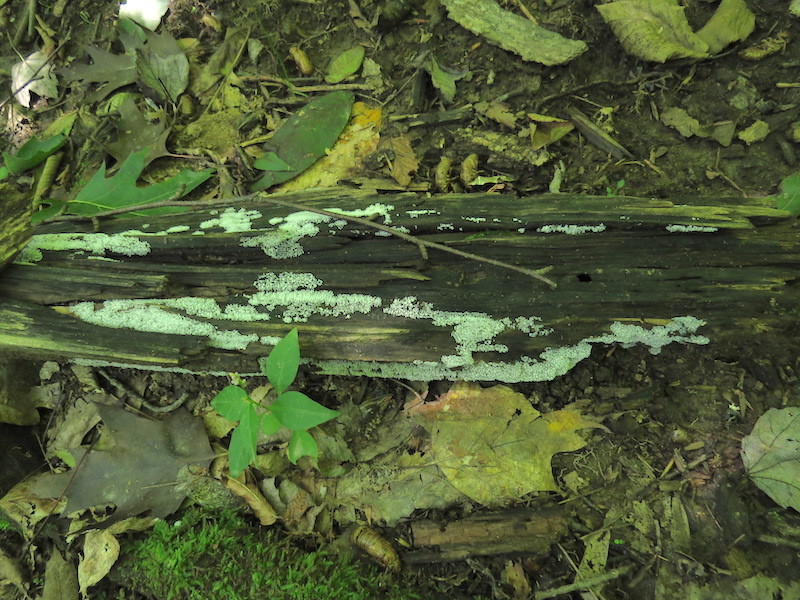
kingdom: Protozoa
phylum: Mycetozoa
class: Protosteliomycetes
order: Ceratiomyxales
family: Ceratiomyxaceae
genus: Ceratiomyxa
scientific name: Ceratiomyxa fruticulosa
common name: Honeycomb coral slime mold
